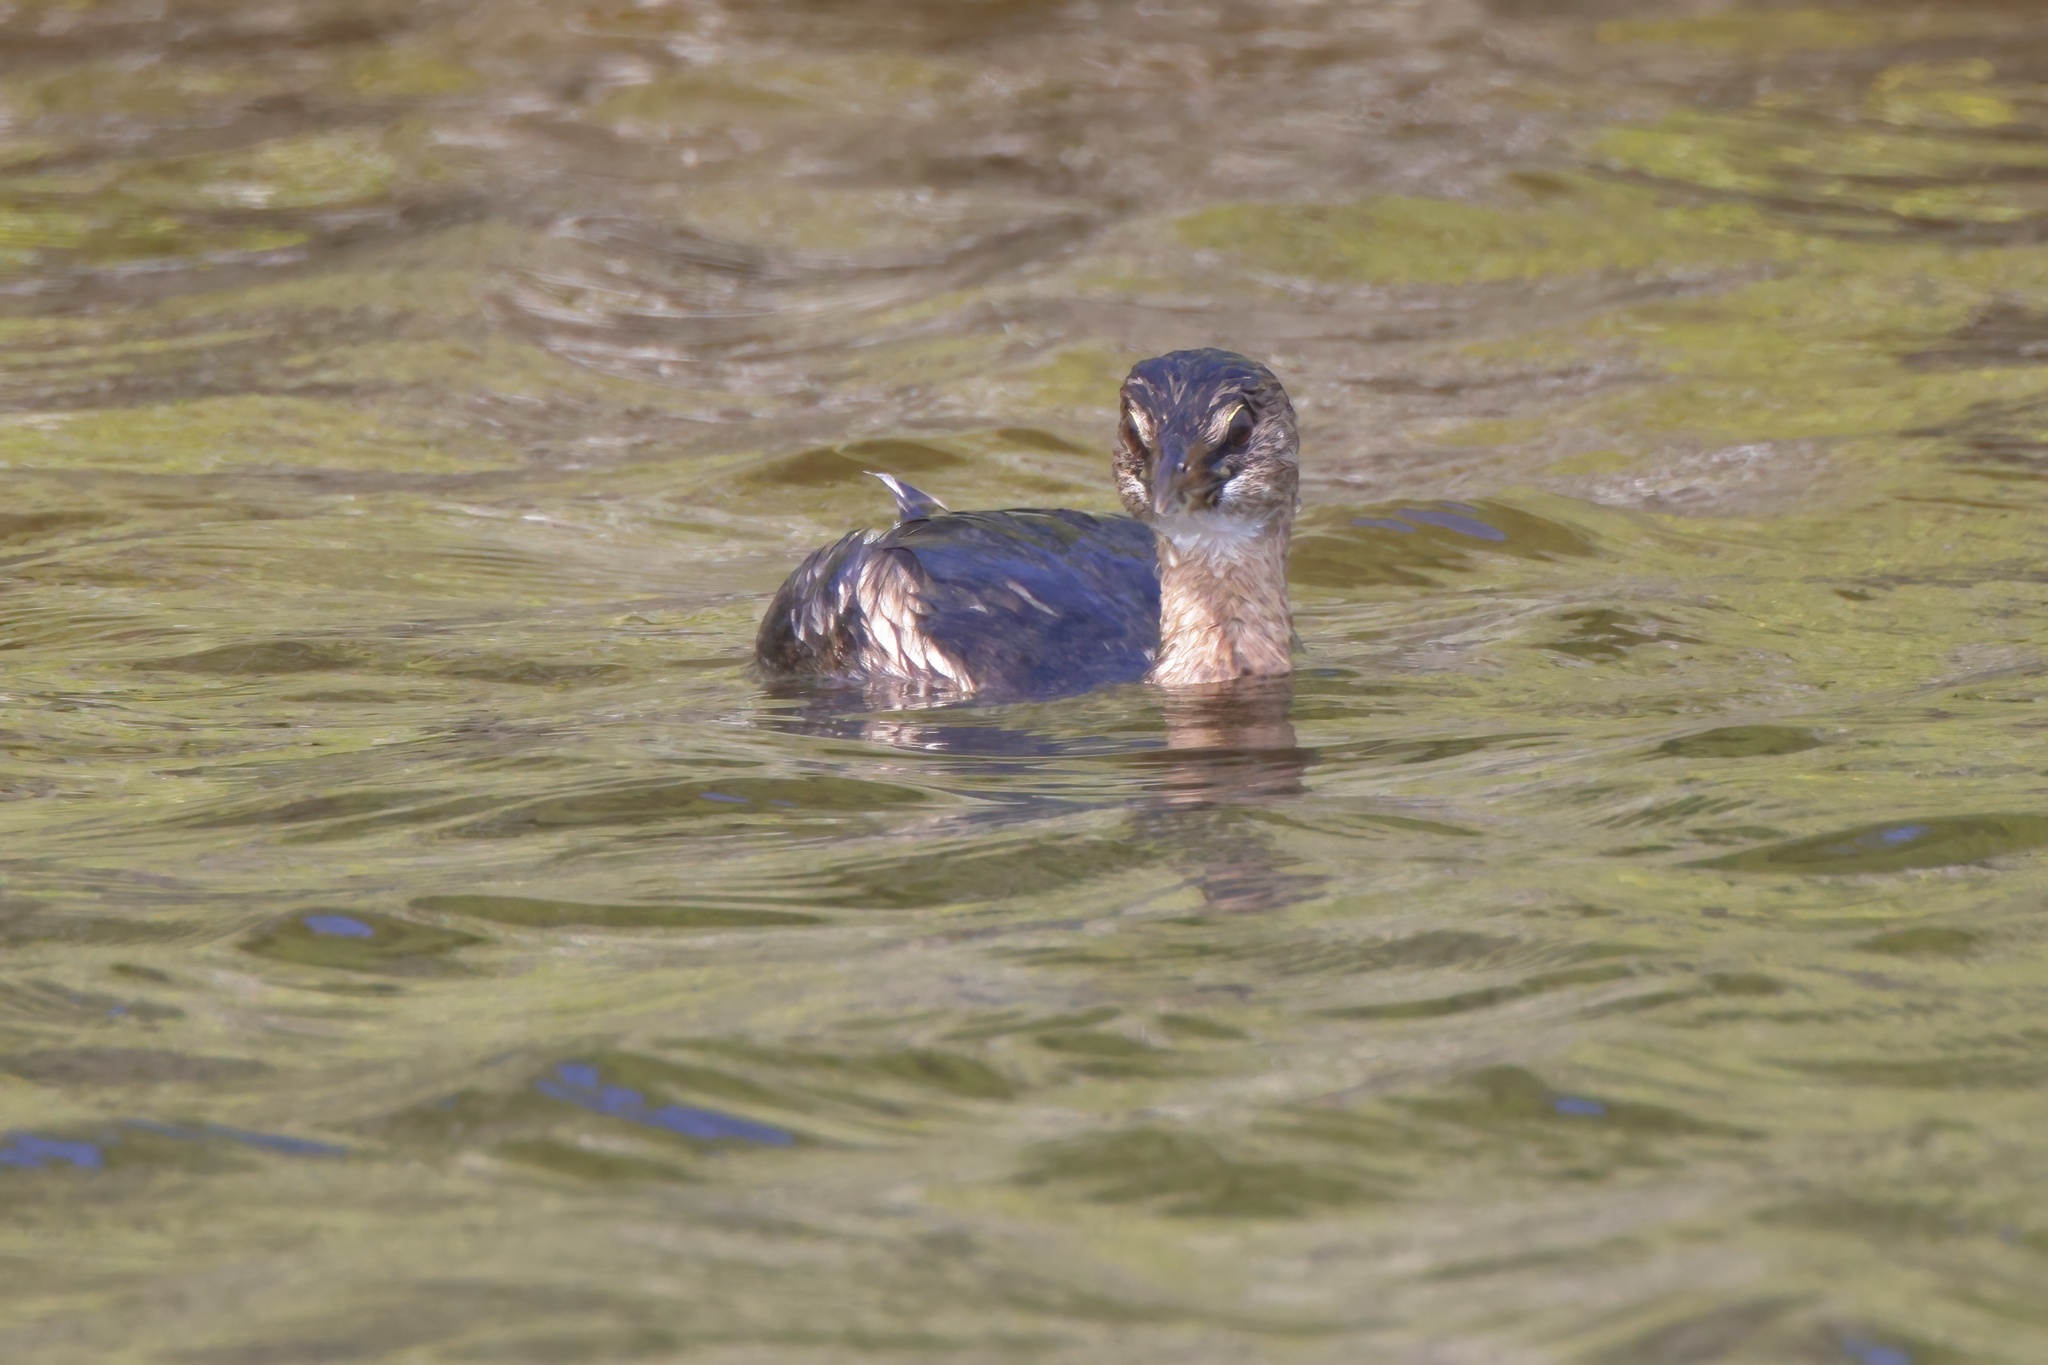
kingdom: Animalia
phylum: Chordata
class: Aves
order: Podicipediformes
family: Podicipedidae
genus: Podilymbus
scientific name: Podilymbus podiceps
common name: Pied-billed grebe
